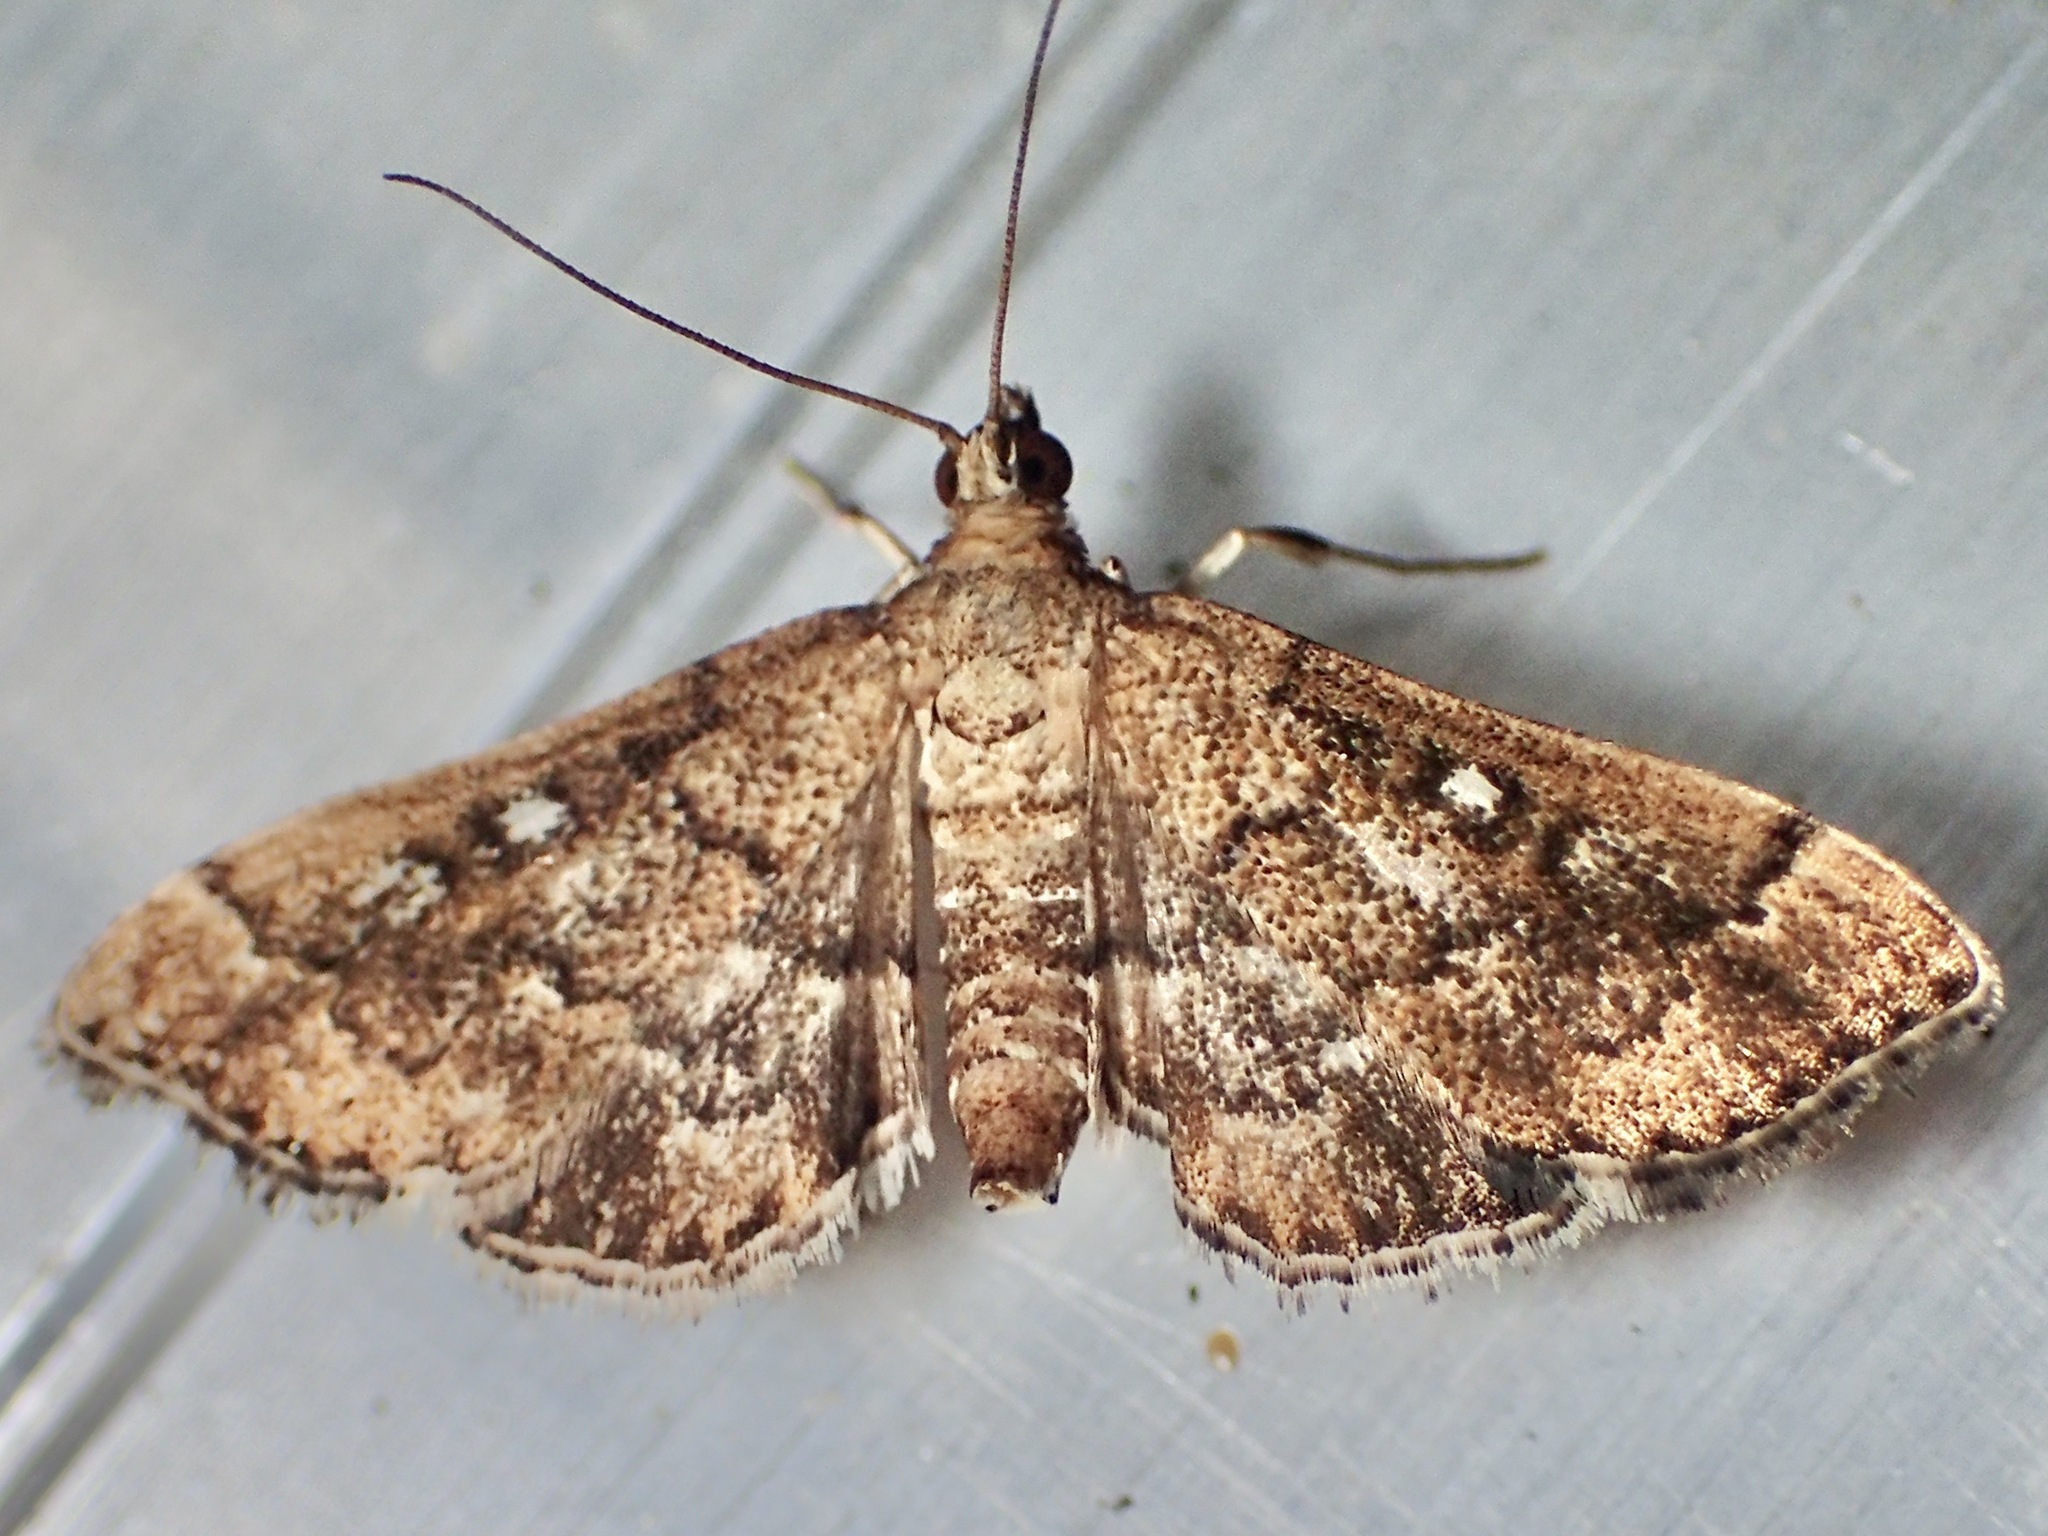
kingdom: Animalia
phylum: Arthropoda
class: Insecta
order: Lepidoptera
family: Crambidae
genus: Nacoleia
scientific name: Nacoleia rhoeoalis
